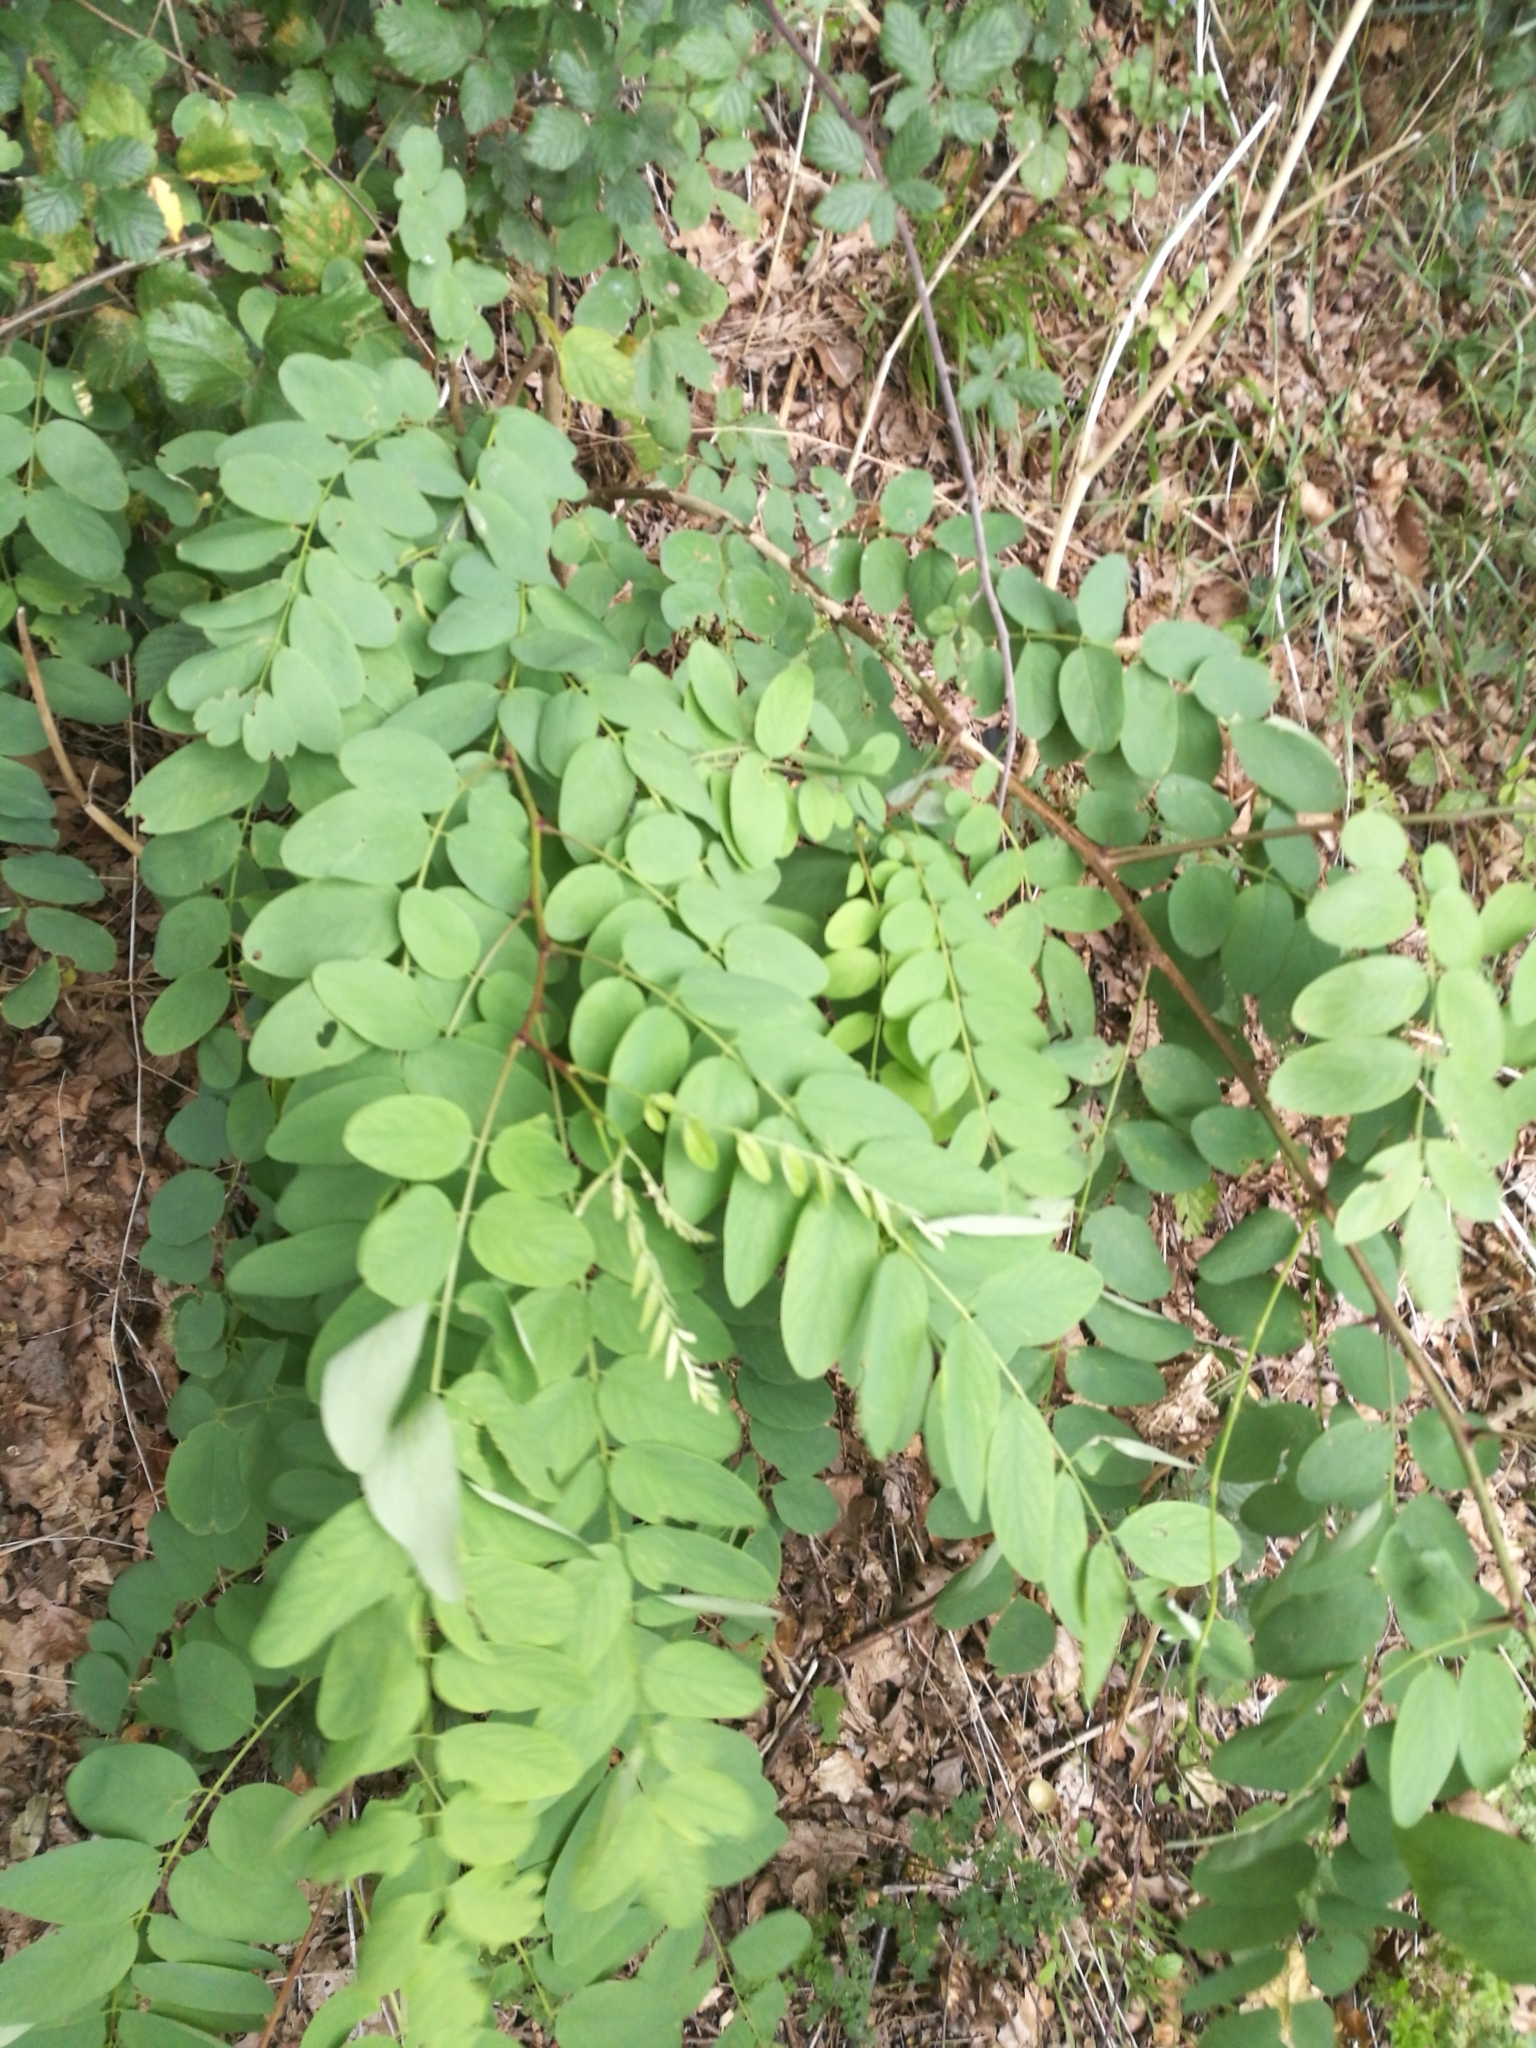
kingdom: Plantae
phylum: Tracheophyta
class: Magnoliopsida
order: Fabales
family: Fabaceae
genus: Robinia
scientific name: Robinia pseudoacacia
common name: Black locust
